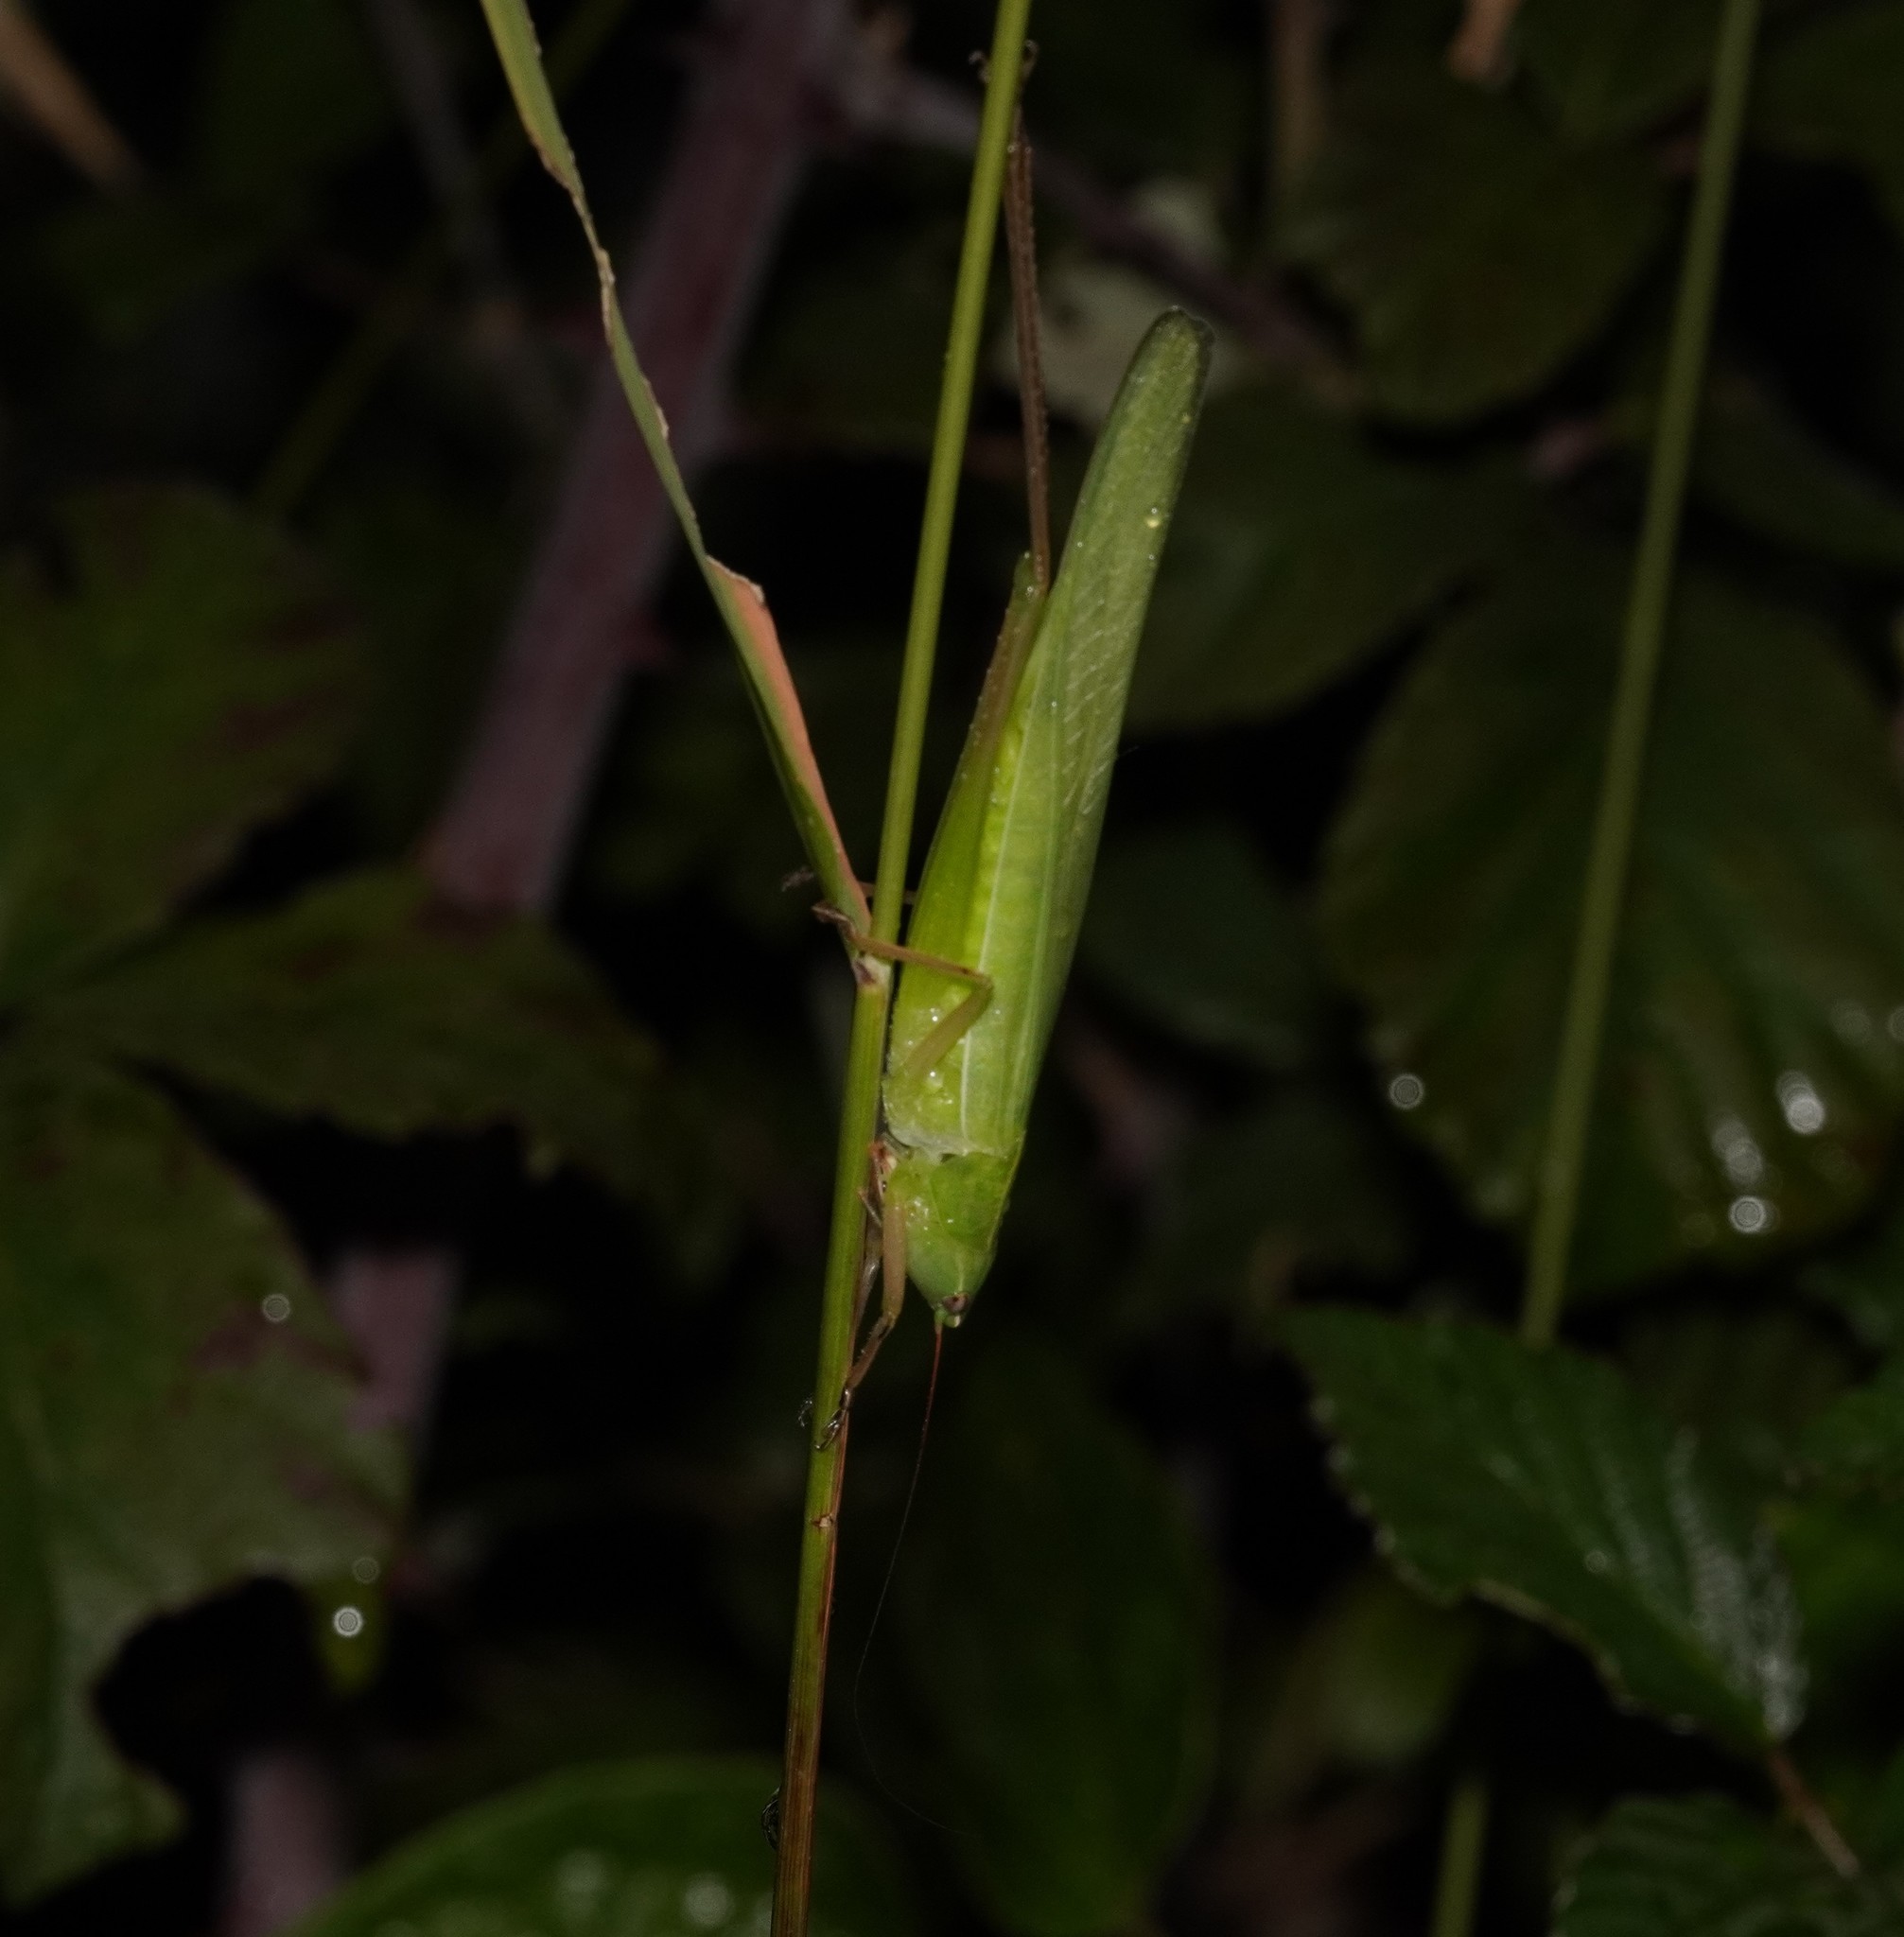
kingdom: Animalia
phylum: Arthropoda
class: Insecta
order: Orthoptera
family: Tettigoniidae
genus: Ruspolia
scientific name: Ruspolia nitidula
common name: Large conehead
